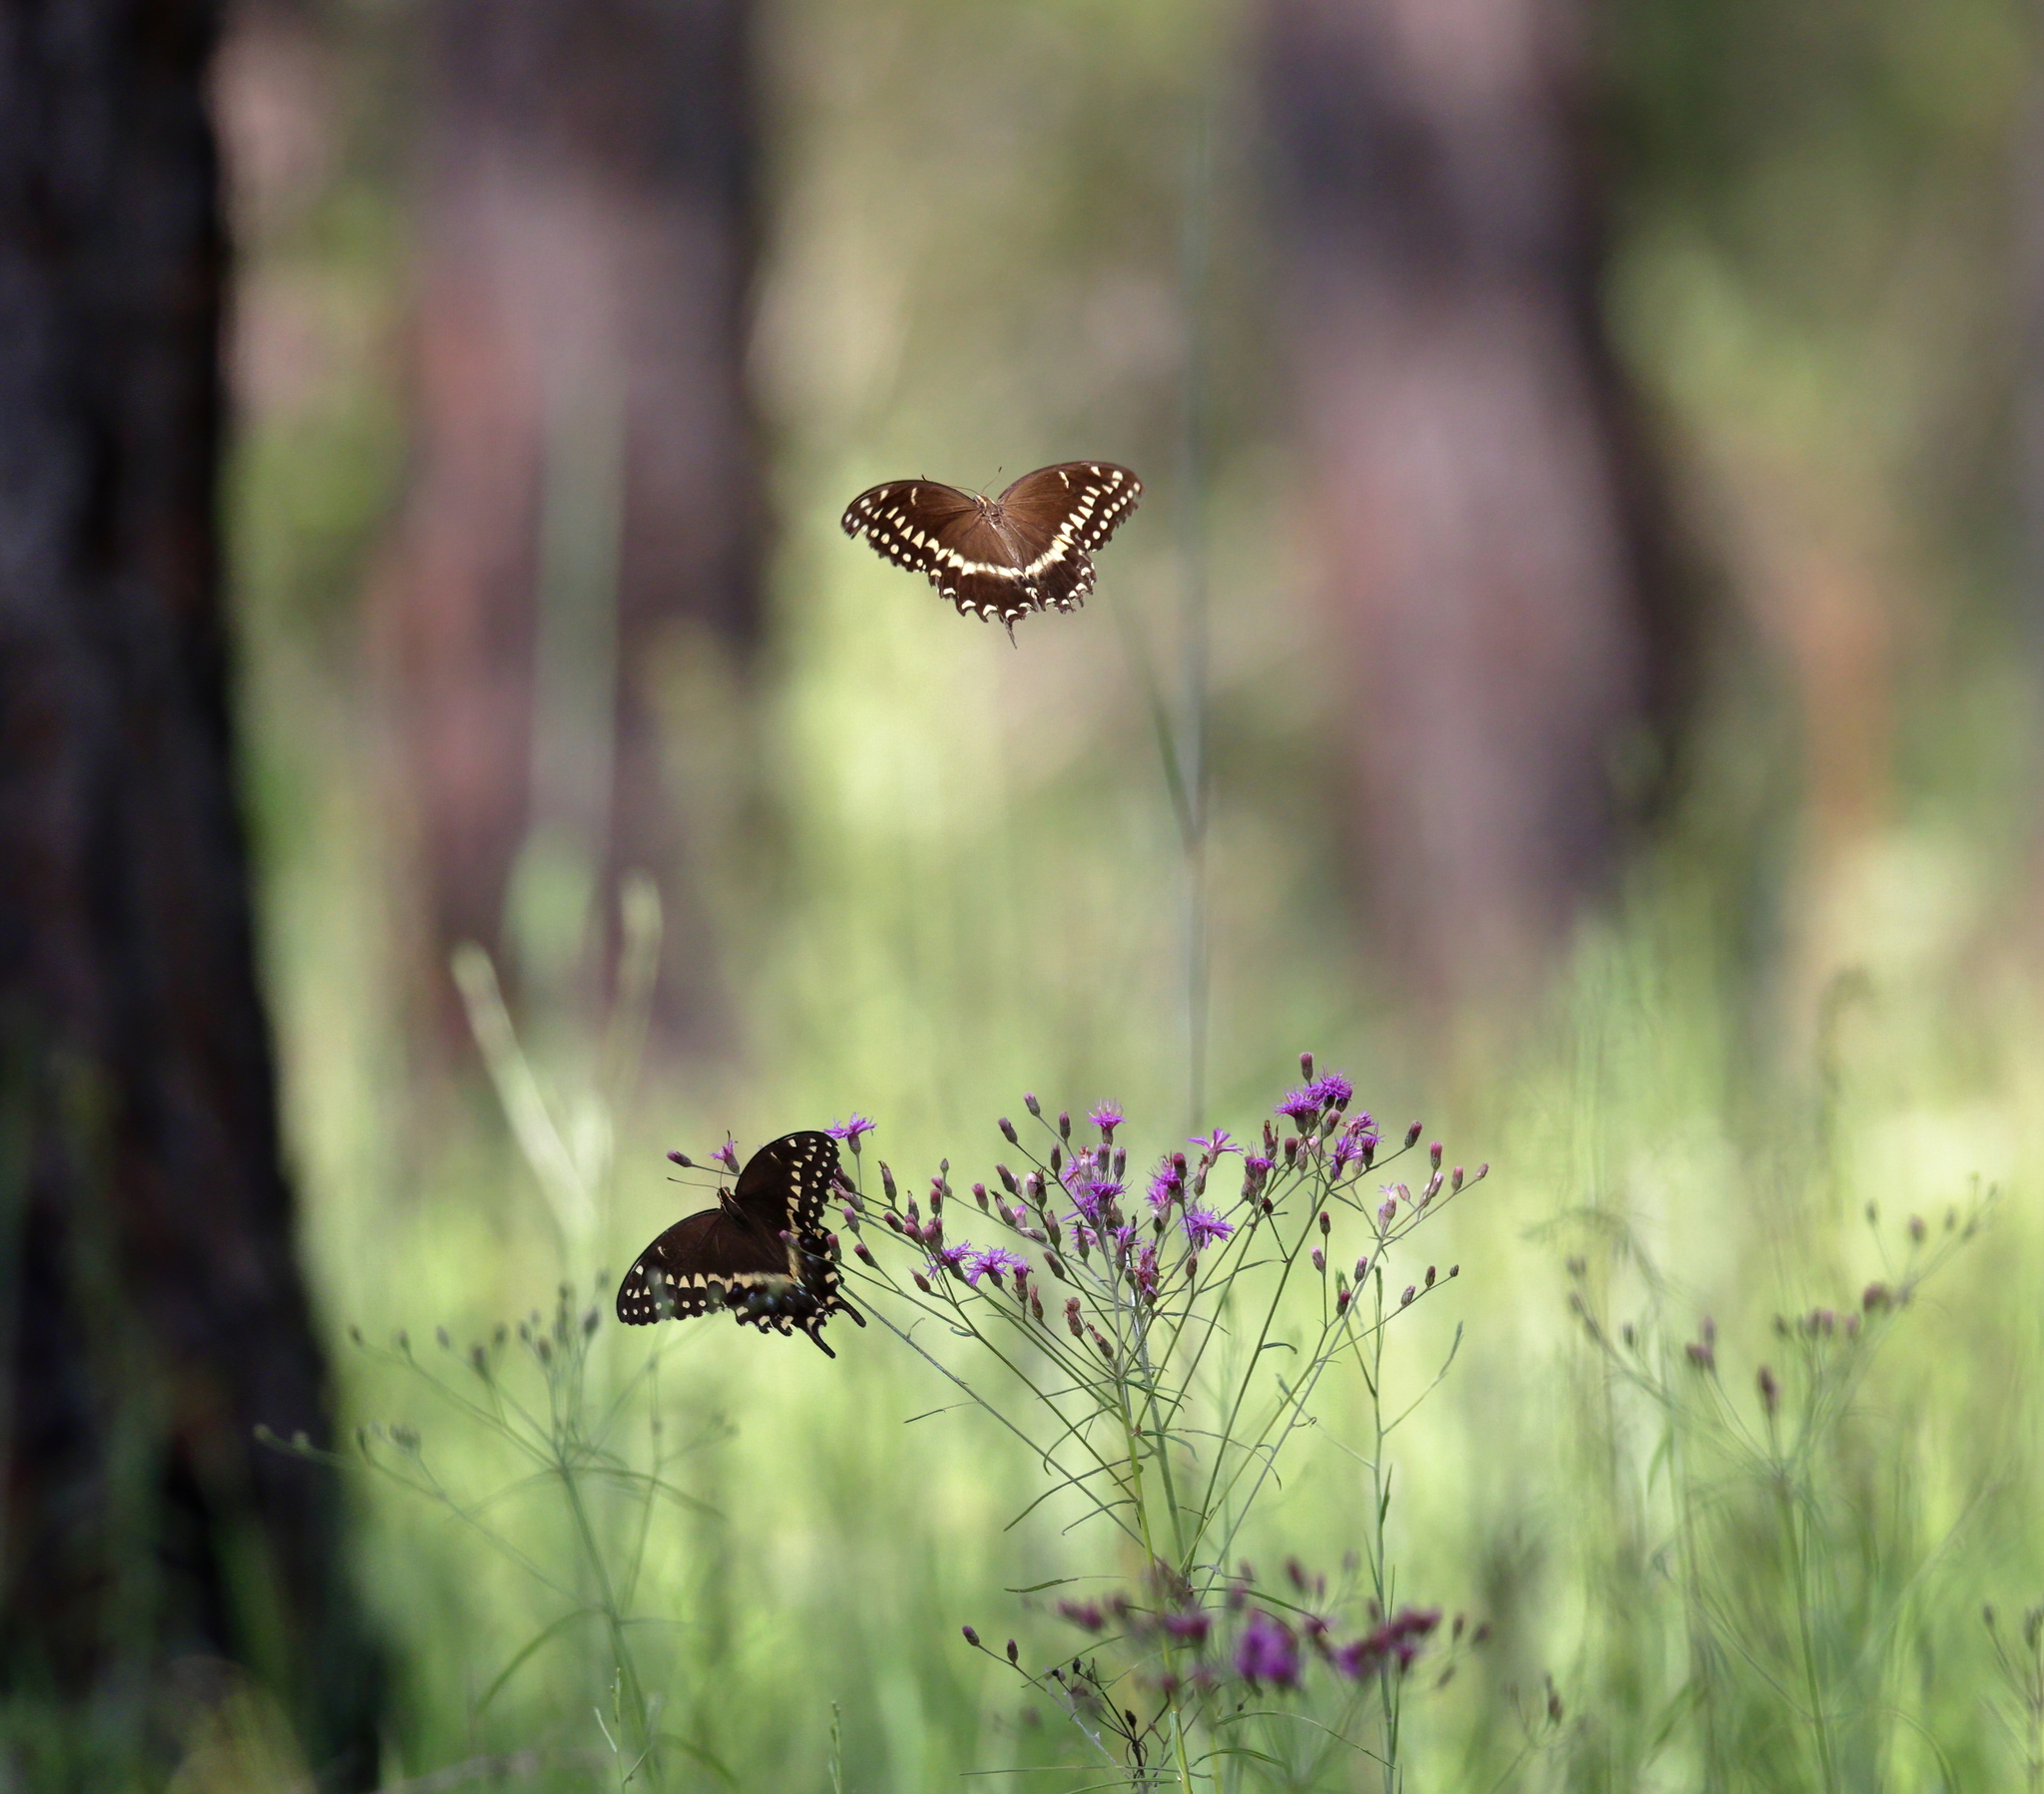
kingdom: Animalia
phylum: Arthropoda
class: Insecta
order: Lepidoptera
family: Papilionidae
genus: Papilio
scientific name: Papilio palamedes
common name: Palamedes swallowtail
